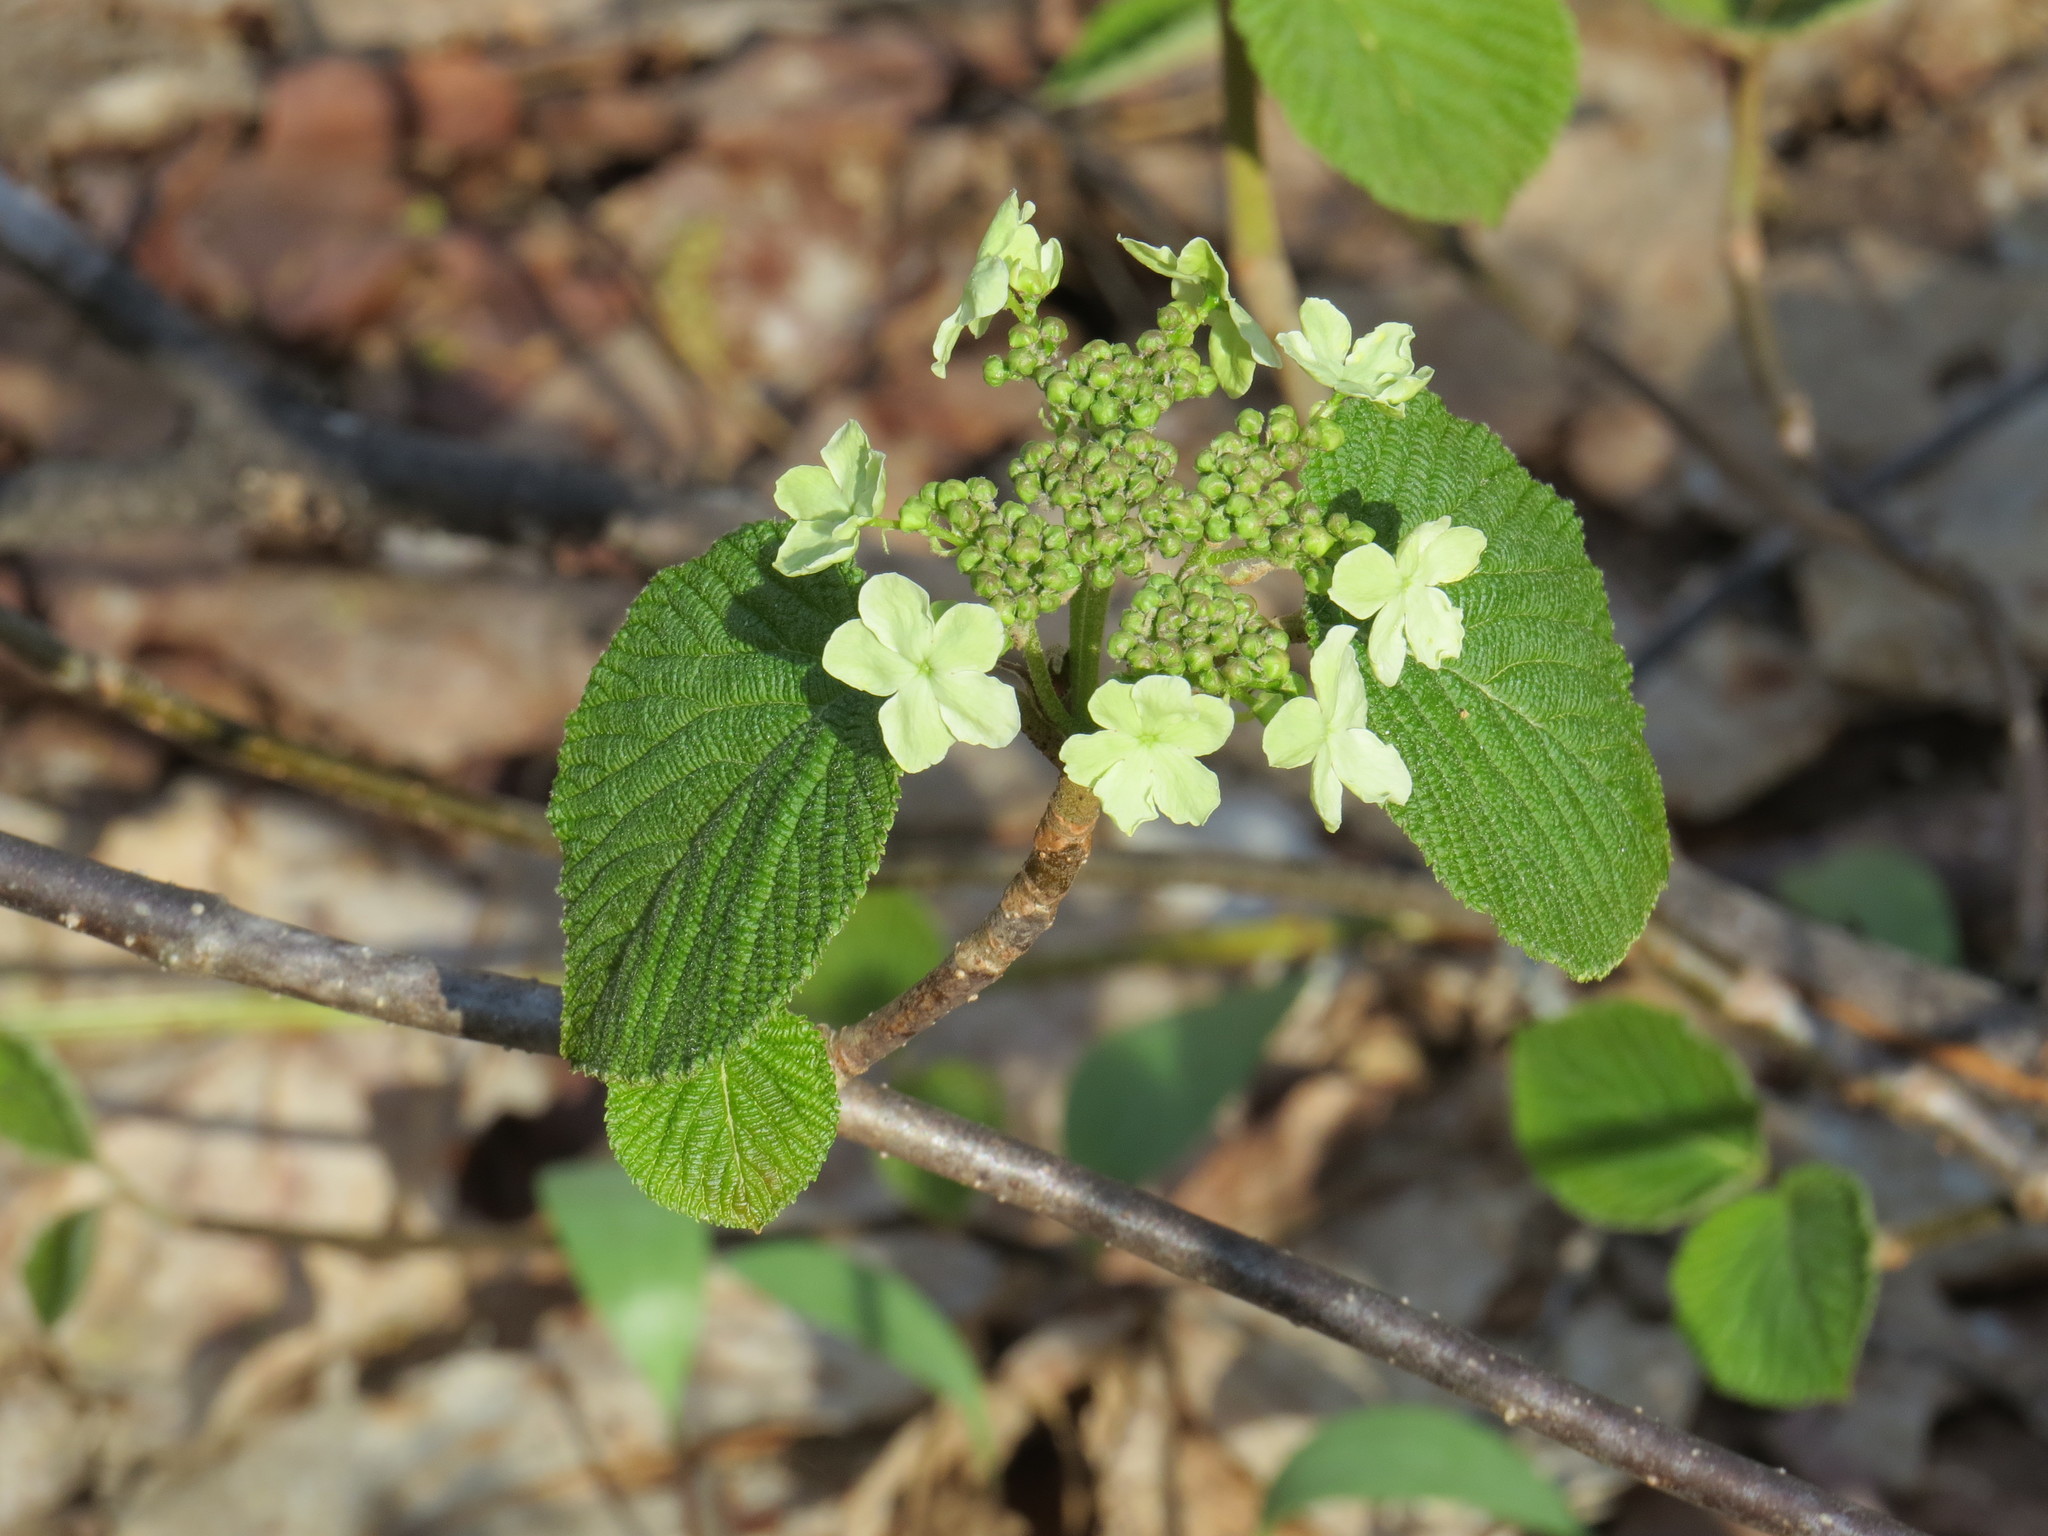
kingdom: Plantae
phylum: Tracheophyta
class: Magnoliopsida
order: Dipsacales
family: Viburnaceae
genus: Viburnum
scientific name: Viburnum lantanoides
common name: Hobblebush
